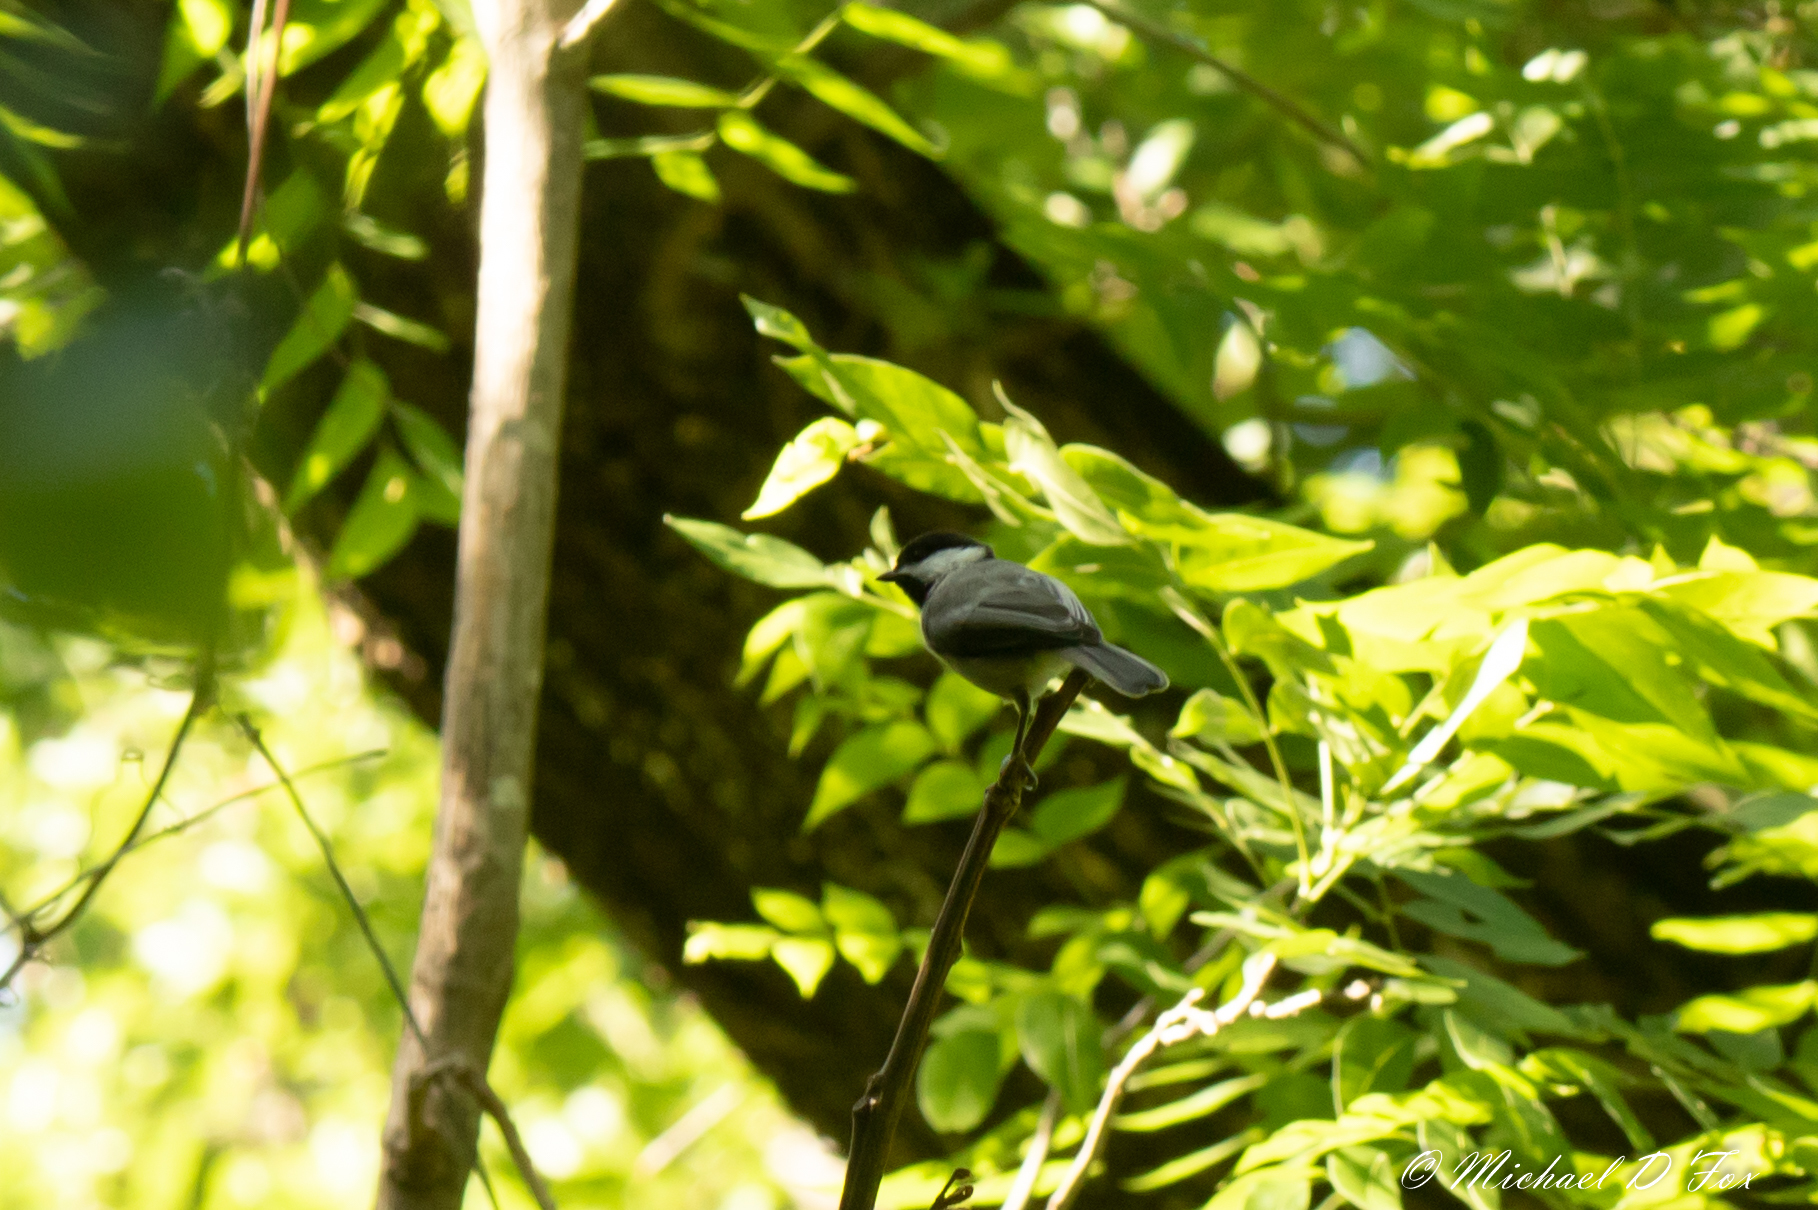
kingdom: Animalia
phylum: Chordata
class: Aves
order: Passeriformes
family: Paridae
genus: Poecile
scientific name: Poecile carolinensis
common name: Carolina chickadee
